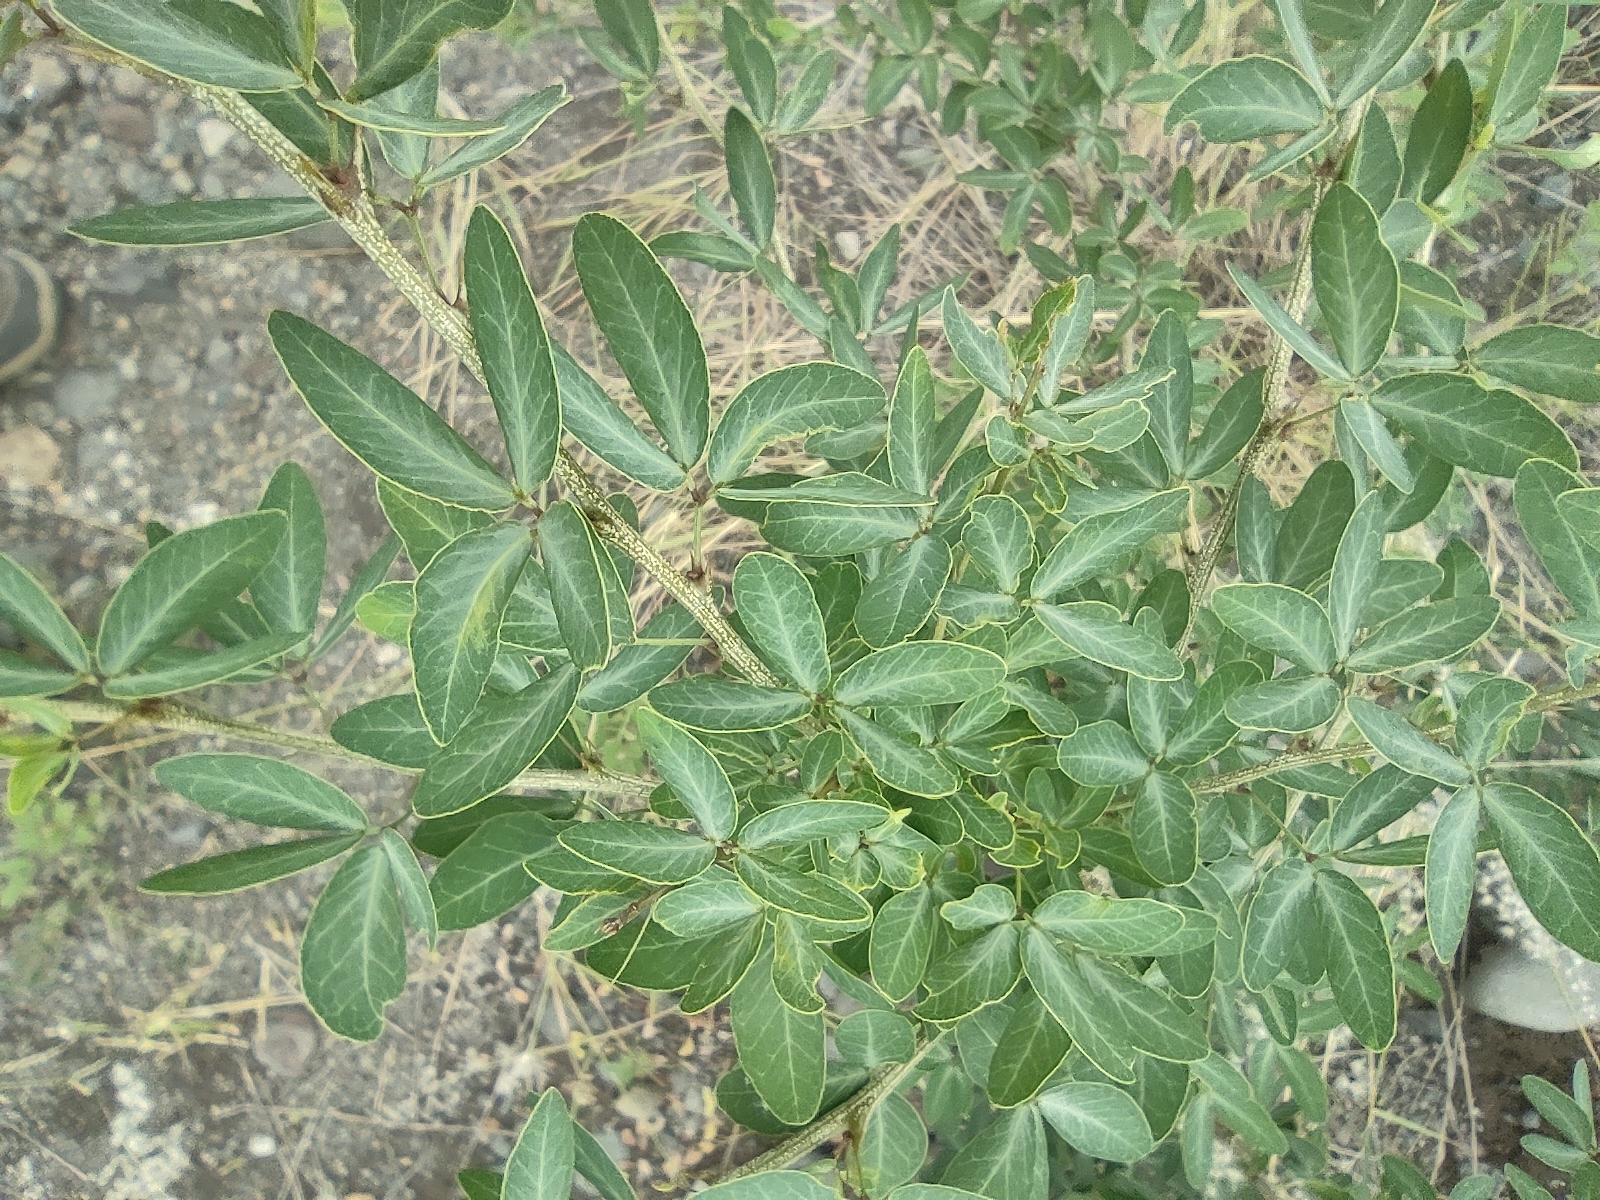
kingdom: Plantae
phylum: Tracheophyta
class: Magnoliopsida
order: Fabales
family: Fabaceae
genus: Pithecellobium
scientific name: Pithecellobium dulce
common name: Monkeypod
